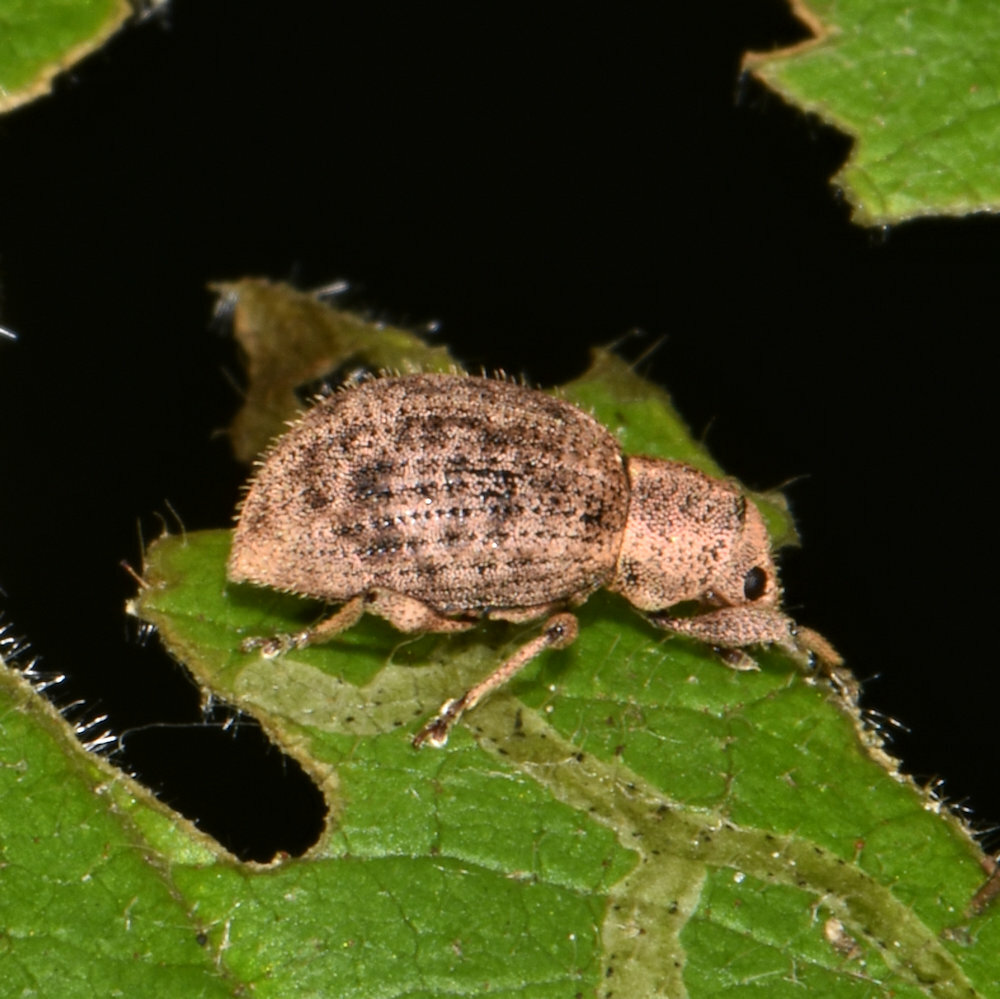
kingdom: Animalia
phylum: Arthropoda
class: Insecta
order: Coleoptera
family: Curculionidae
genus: Sciaphilus
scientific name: Sciaphilus asperatus
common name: Weevil
